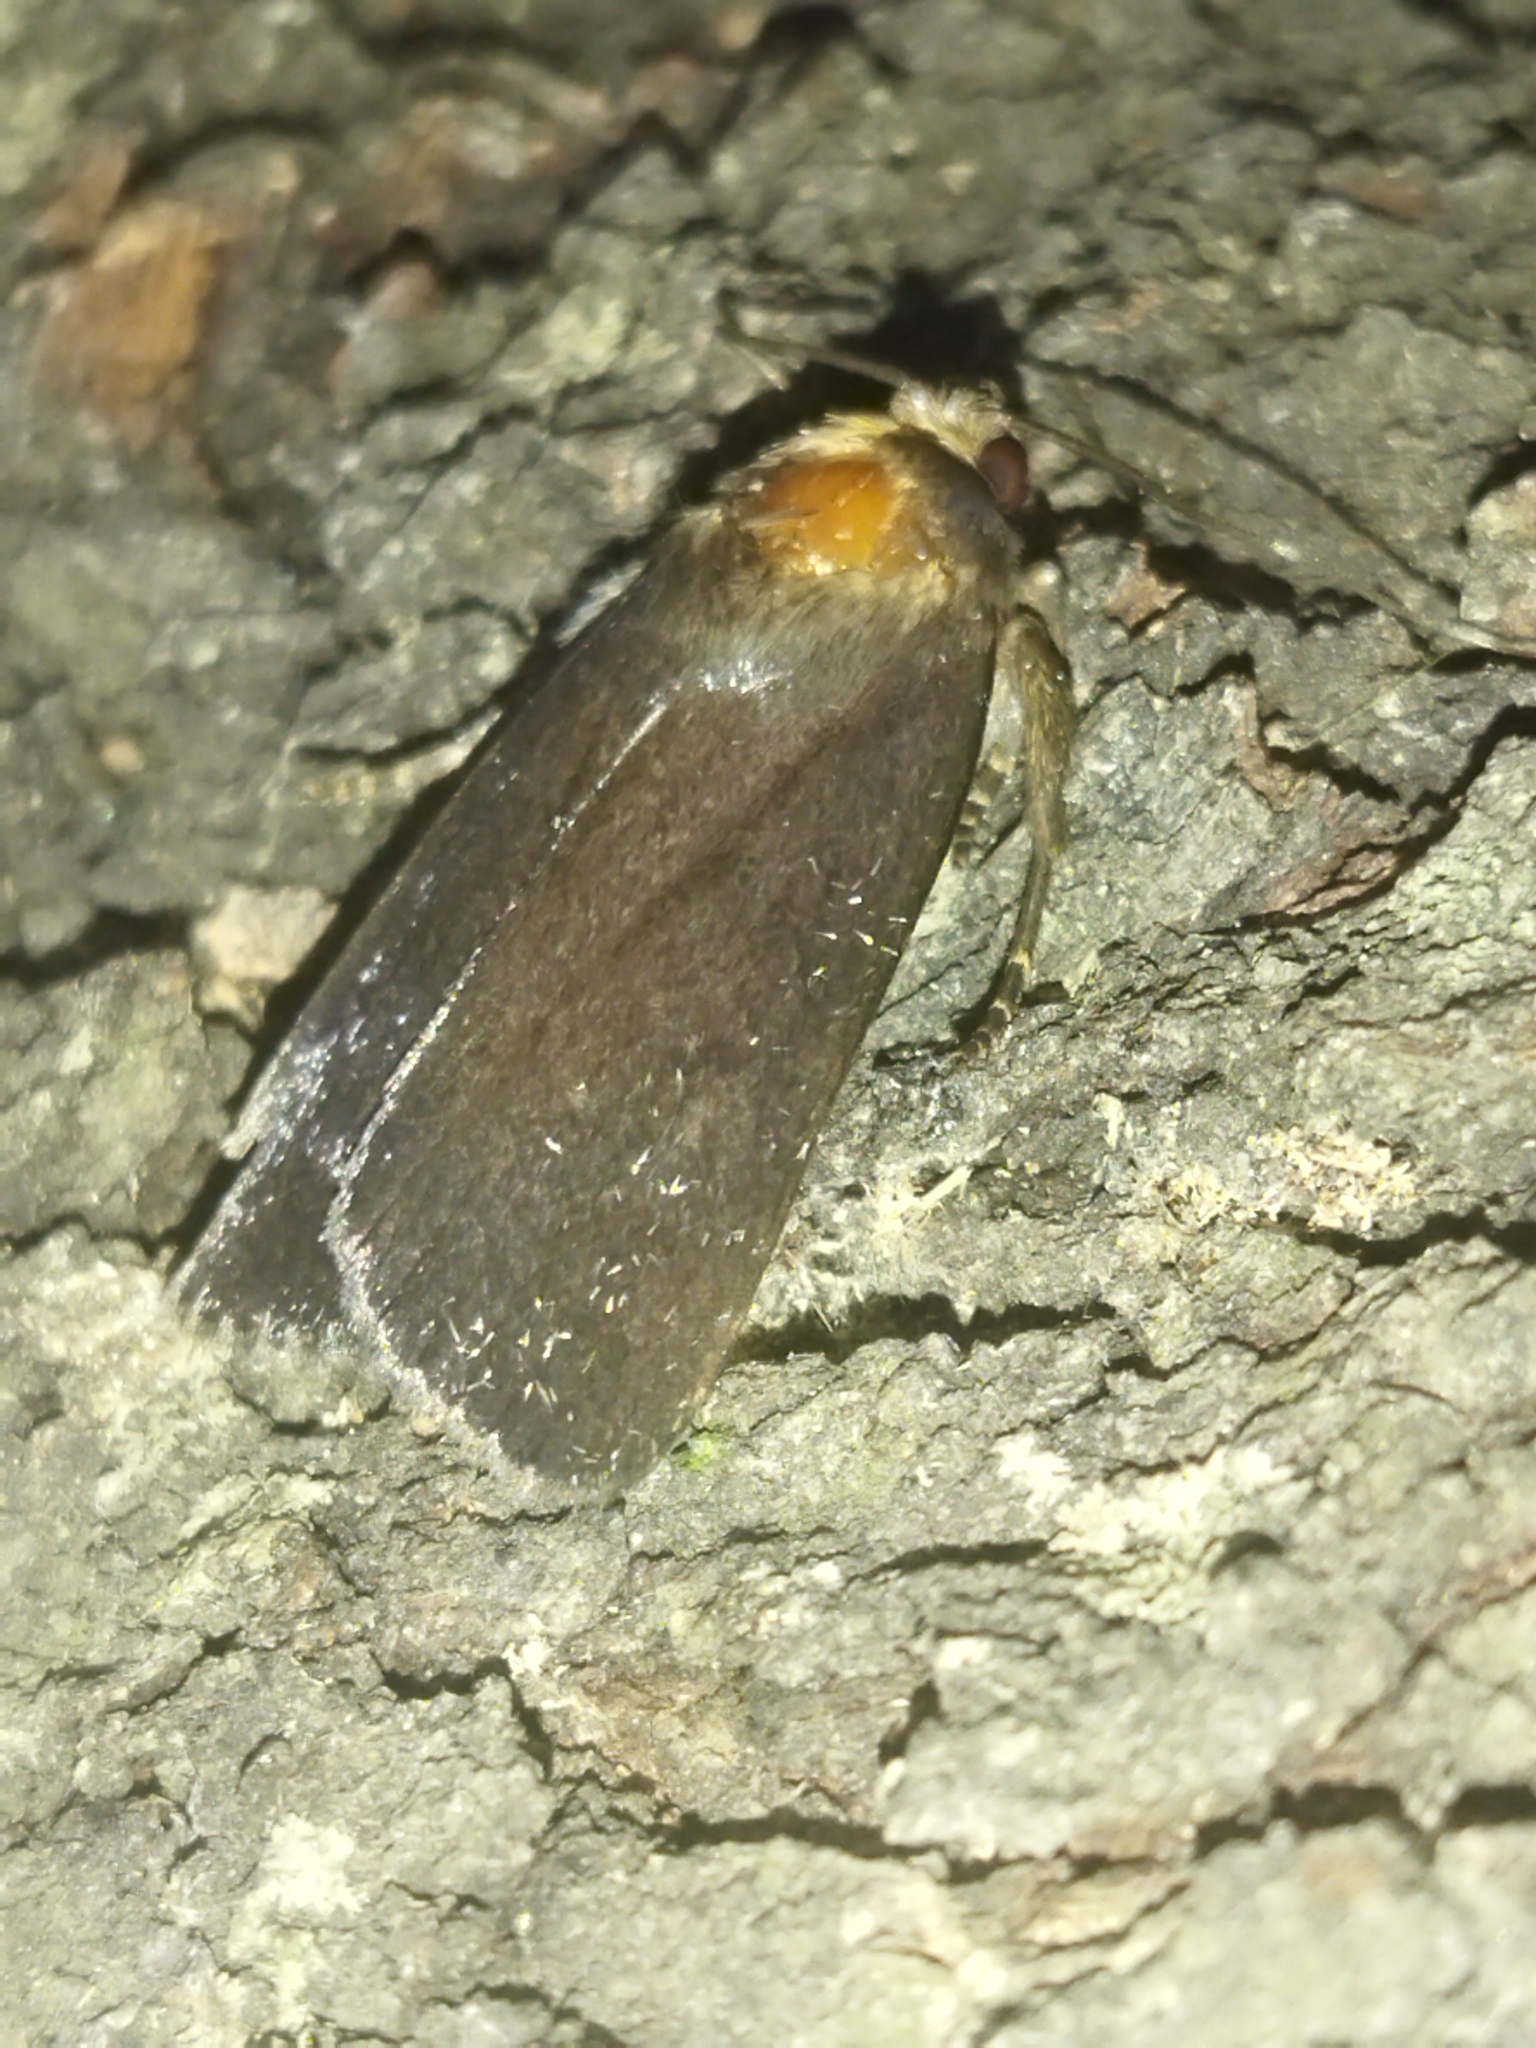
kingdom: Animalia
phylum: Arthropoda
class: Insecta
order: Lepidoptera
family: Noctuidae
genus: Amphipyra
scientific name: Amphipyra livida
